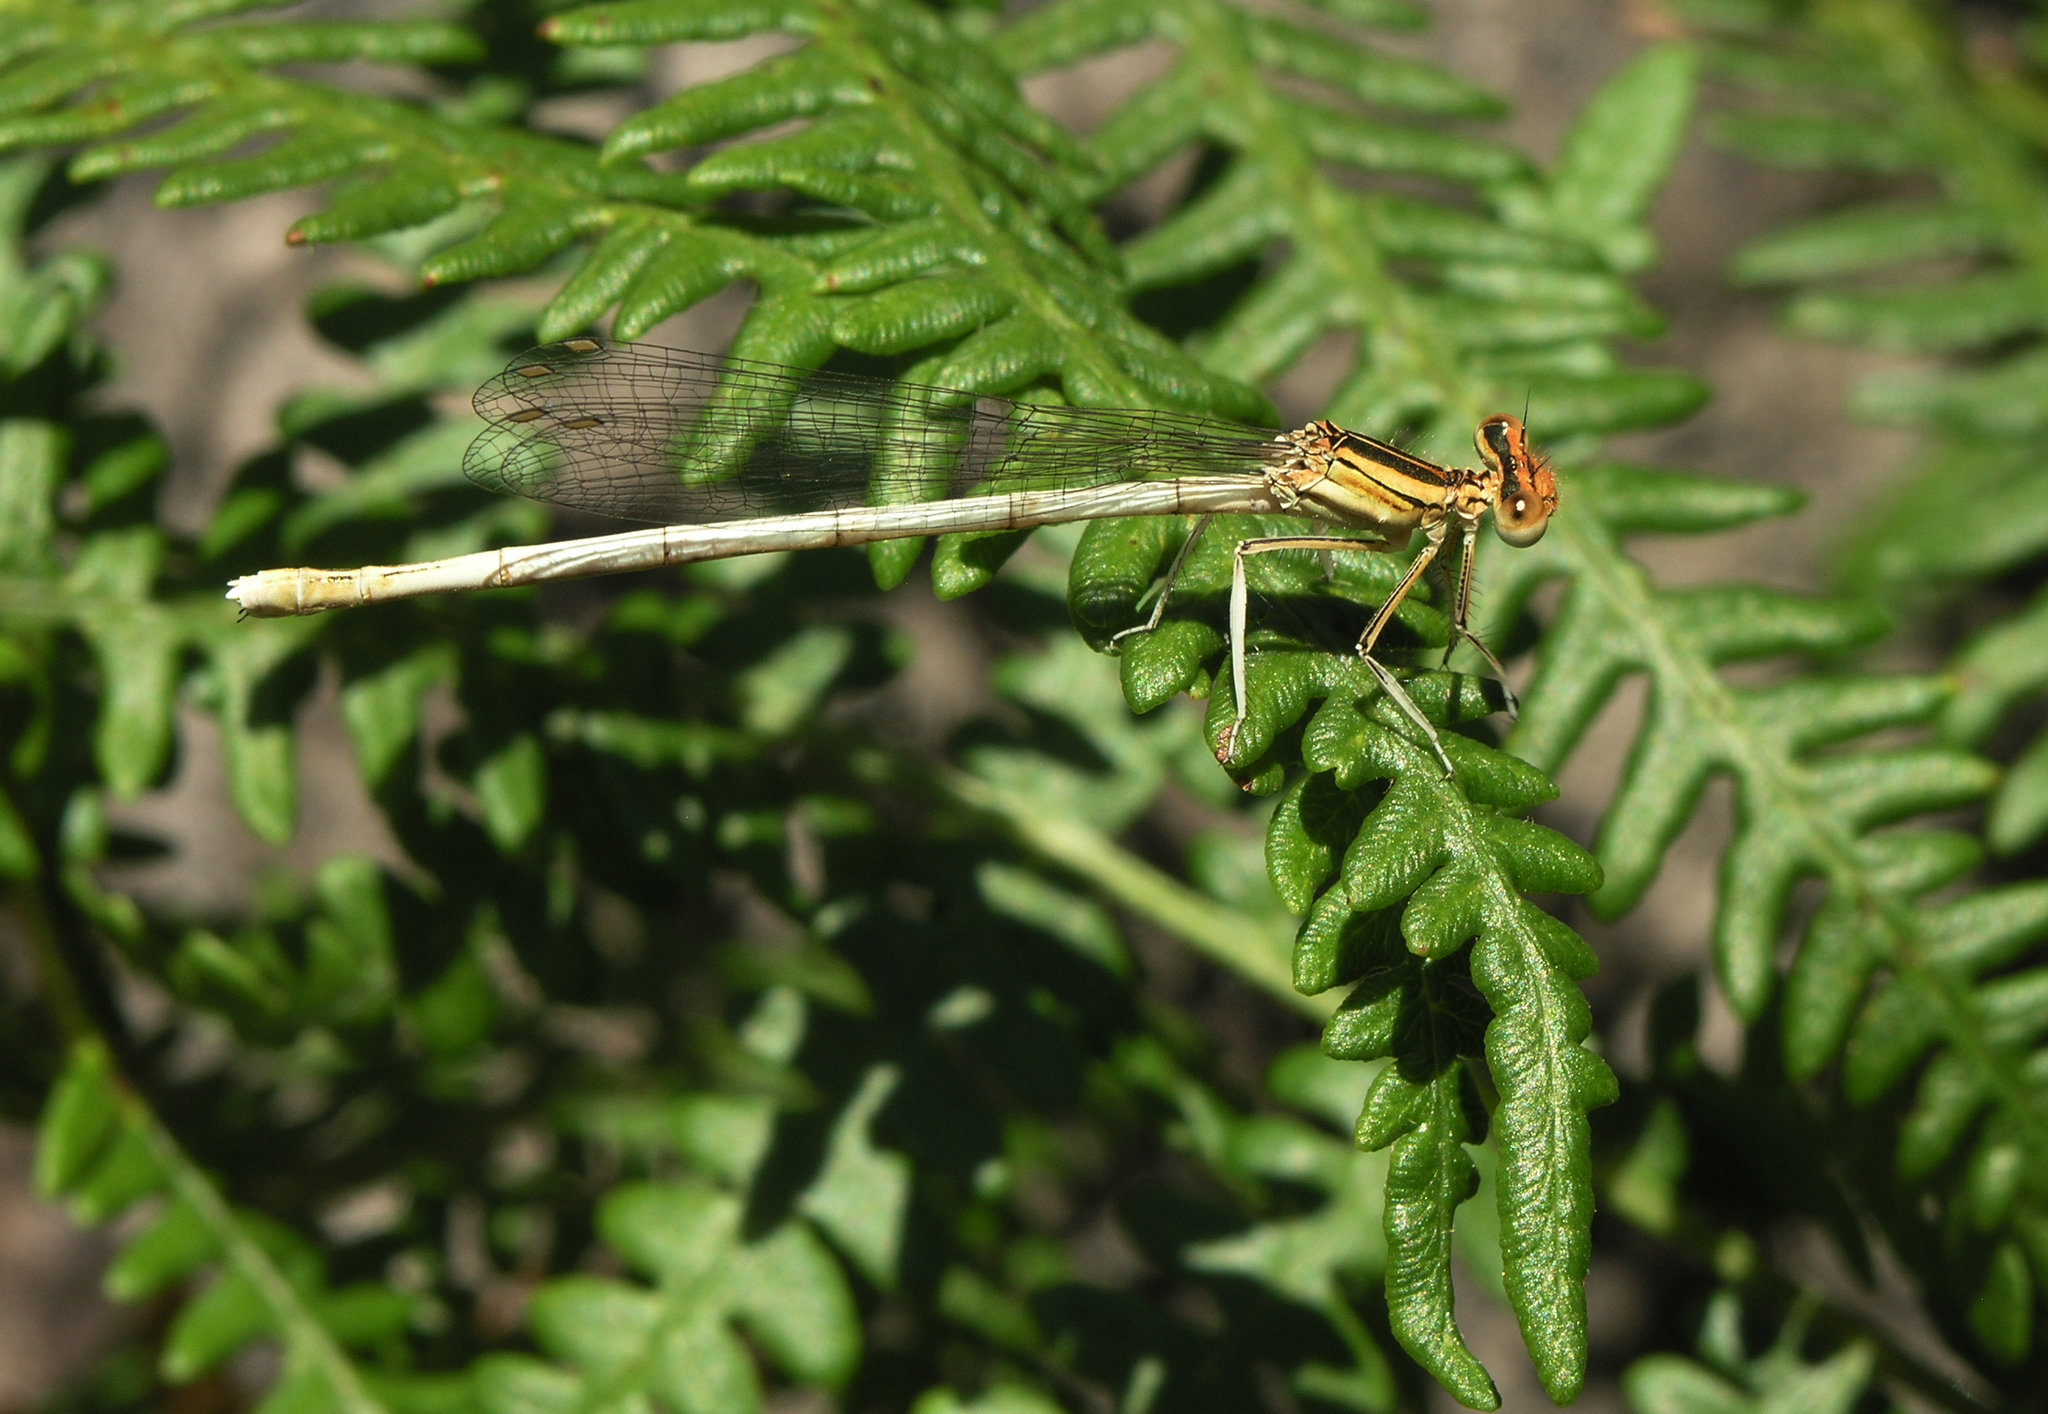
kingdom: Animalia
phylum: Arthropoda
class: Insecta
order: Odonata
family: Platycnemididae
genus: Platycnemis
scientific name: Platycnemis acutipennis
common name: Orange featherleg
